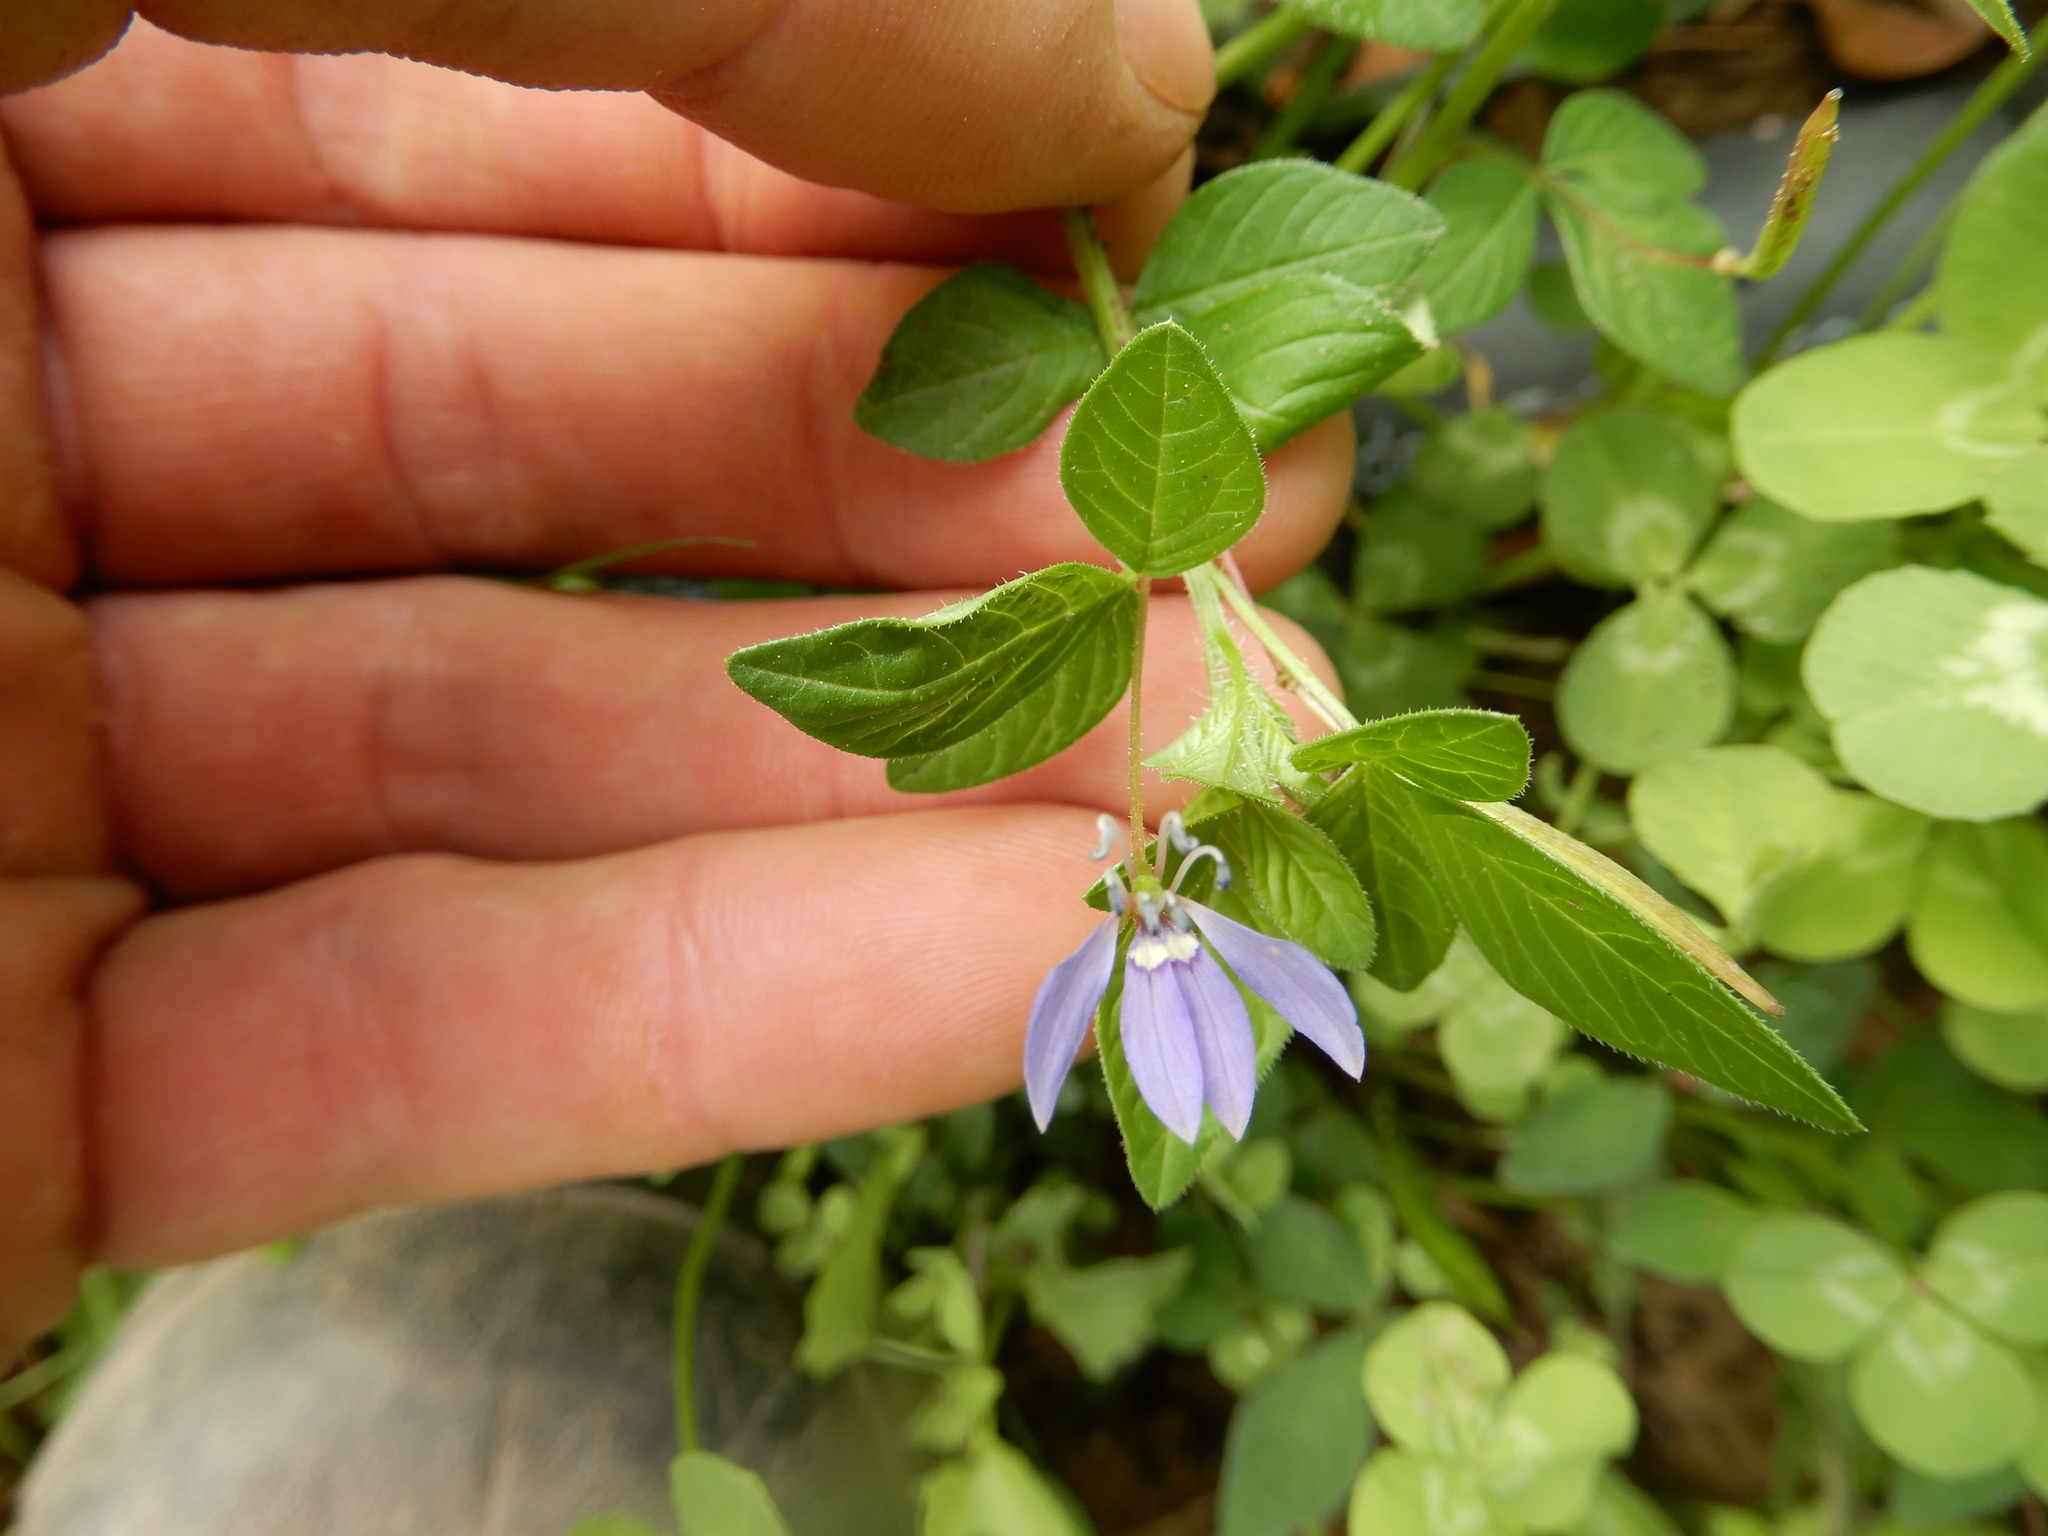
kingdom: Plantae
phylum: Tracheophyta
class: Magnoliopsida
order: Brassicales
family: Cleomaceae
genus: Sieruela
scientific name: Sieruela rutidosperma
